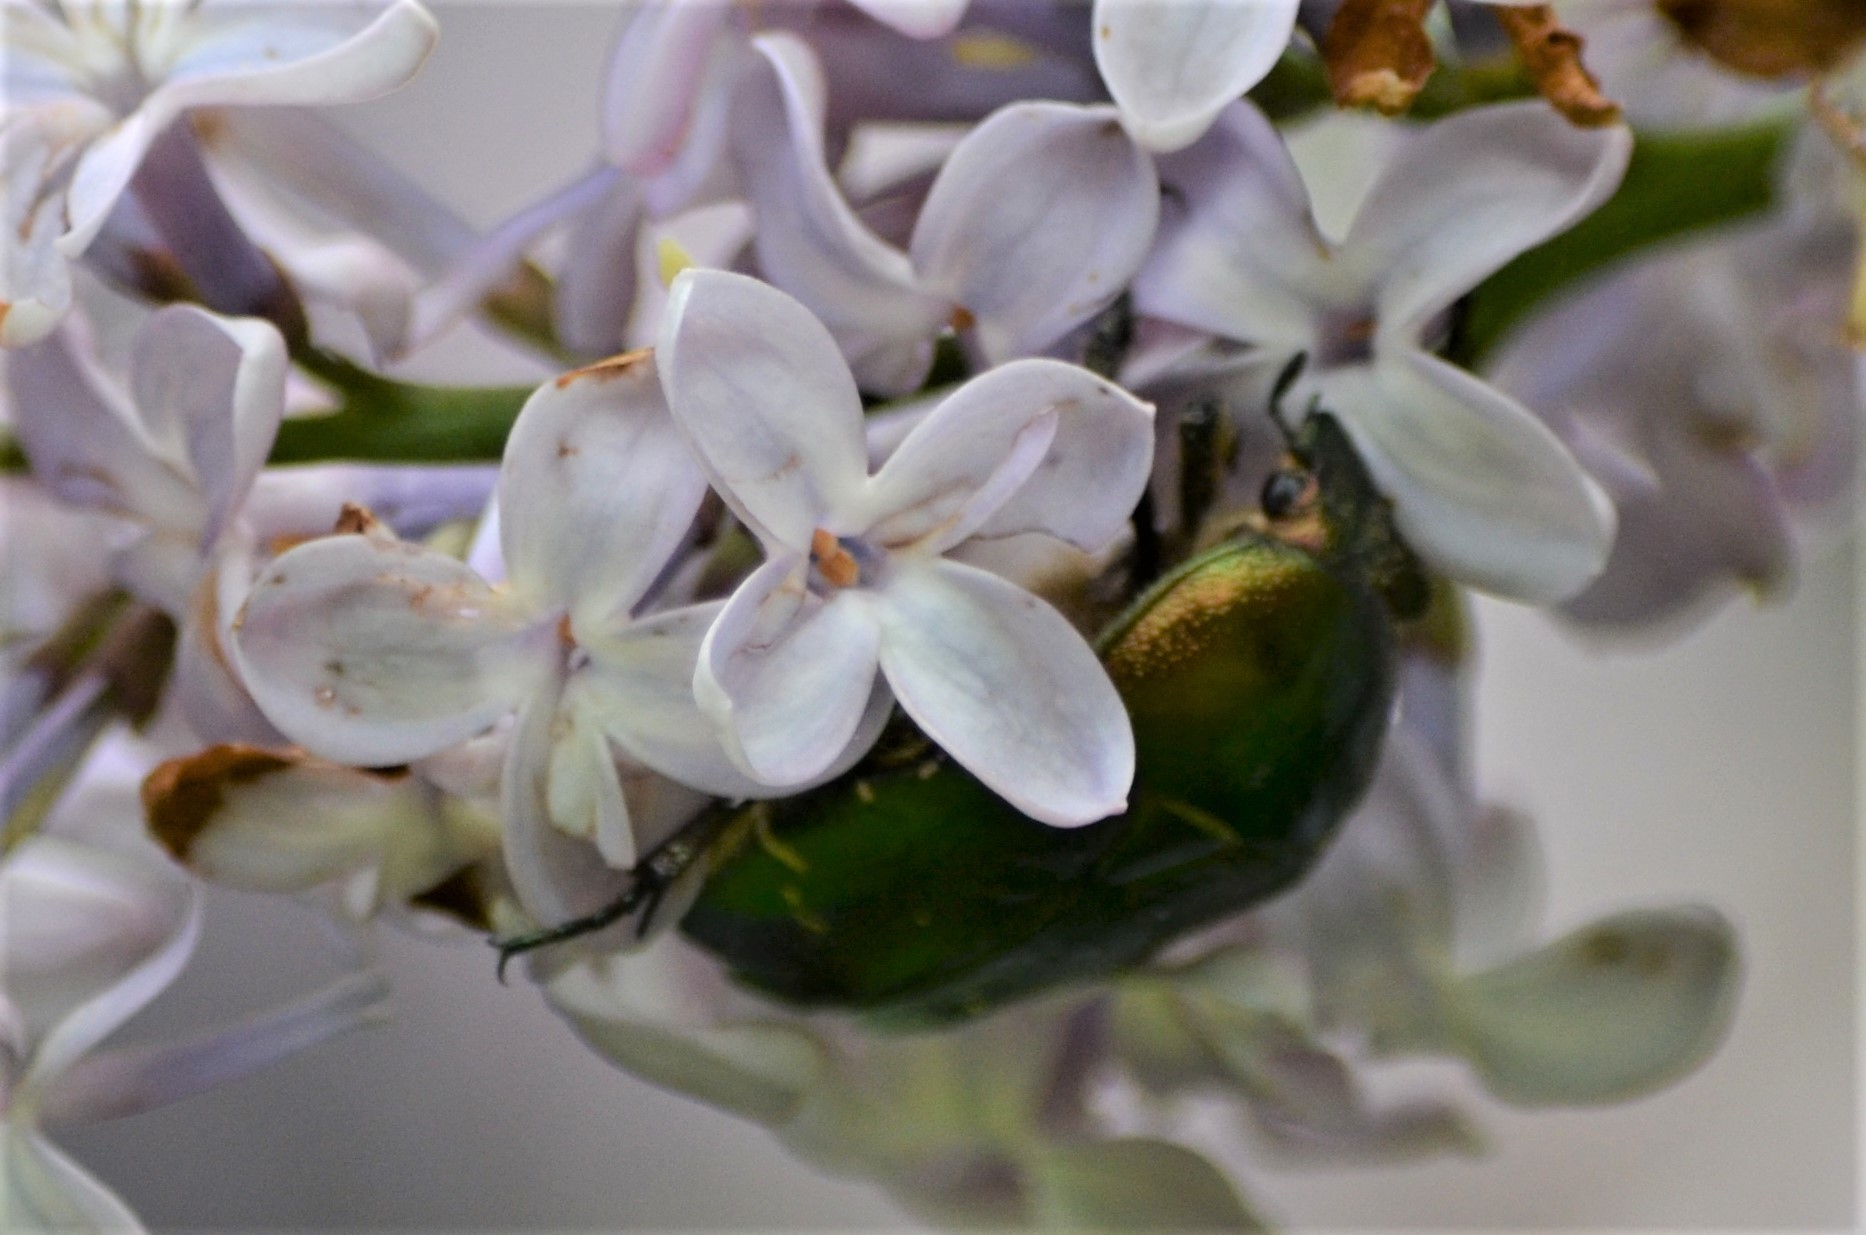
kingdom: Animalia
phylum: Arthropoda
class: Insecta
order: Coleoptera
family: Scarabaeidae
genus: Cetonia
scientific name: Cetonia aurata
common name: Rose chafer
